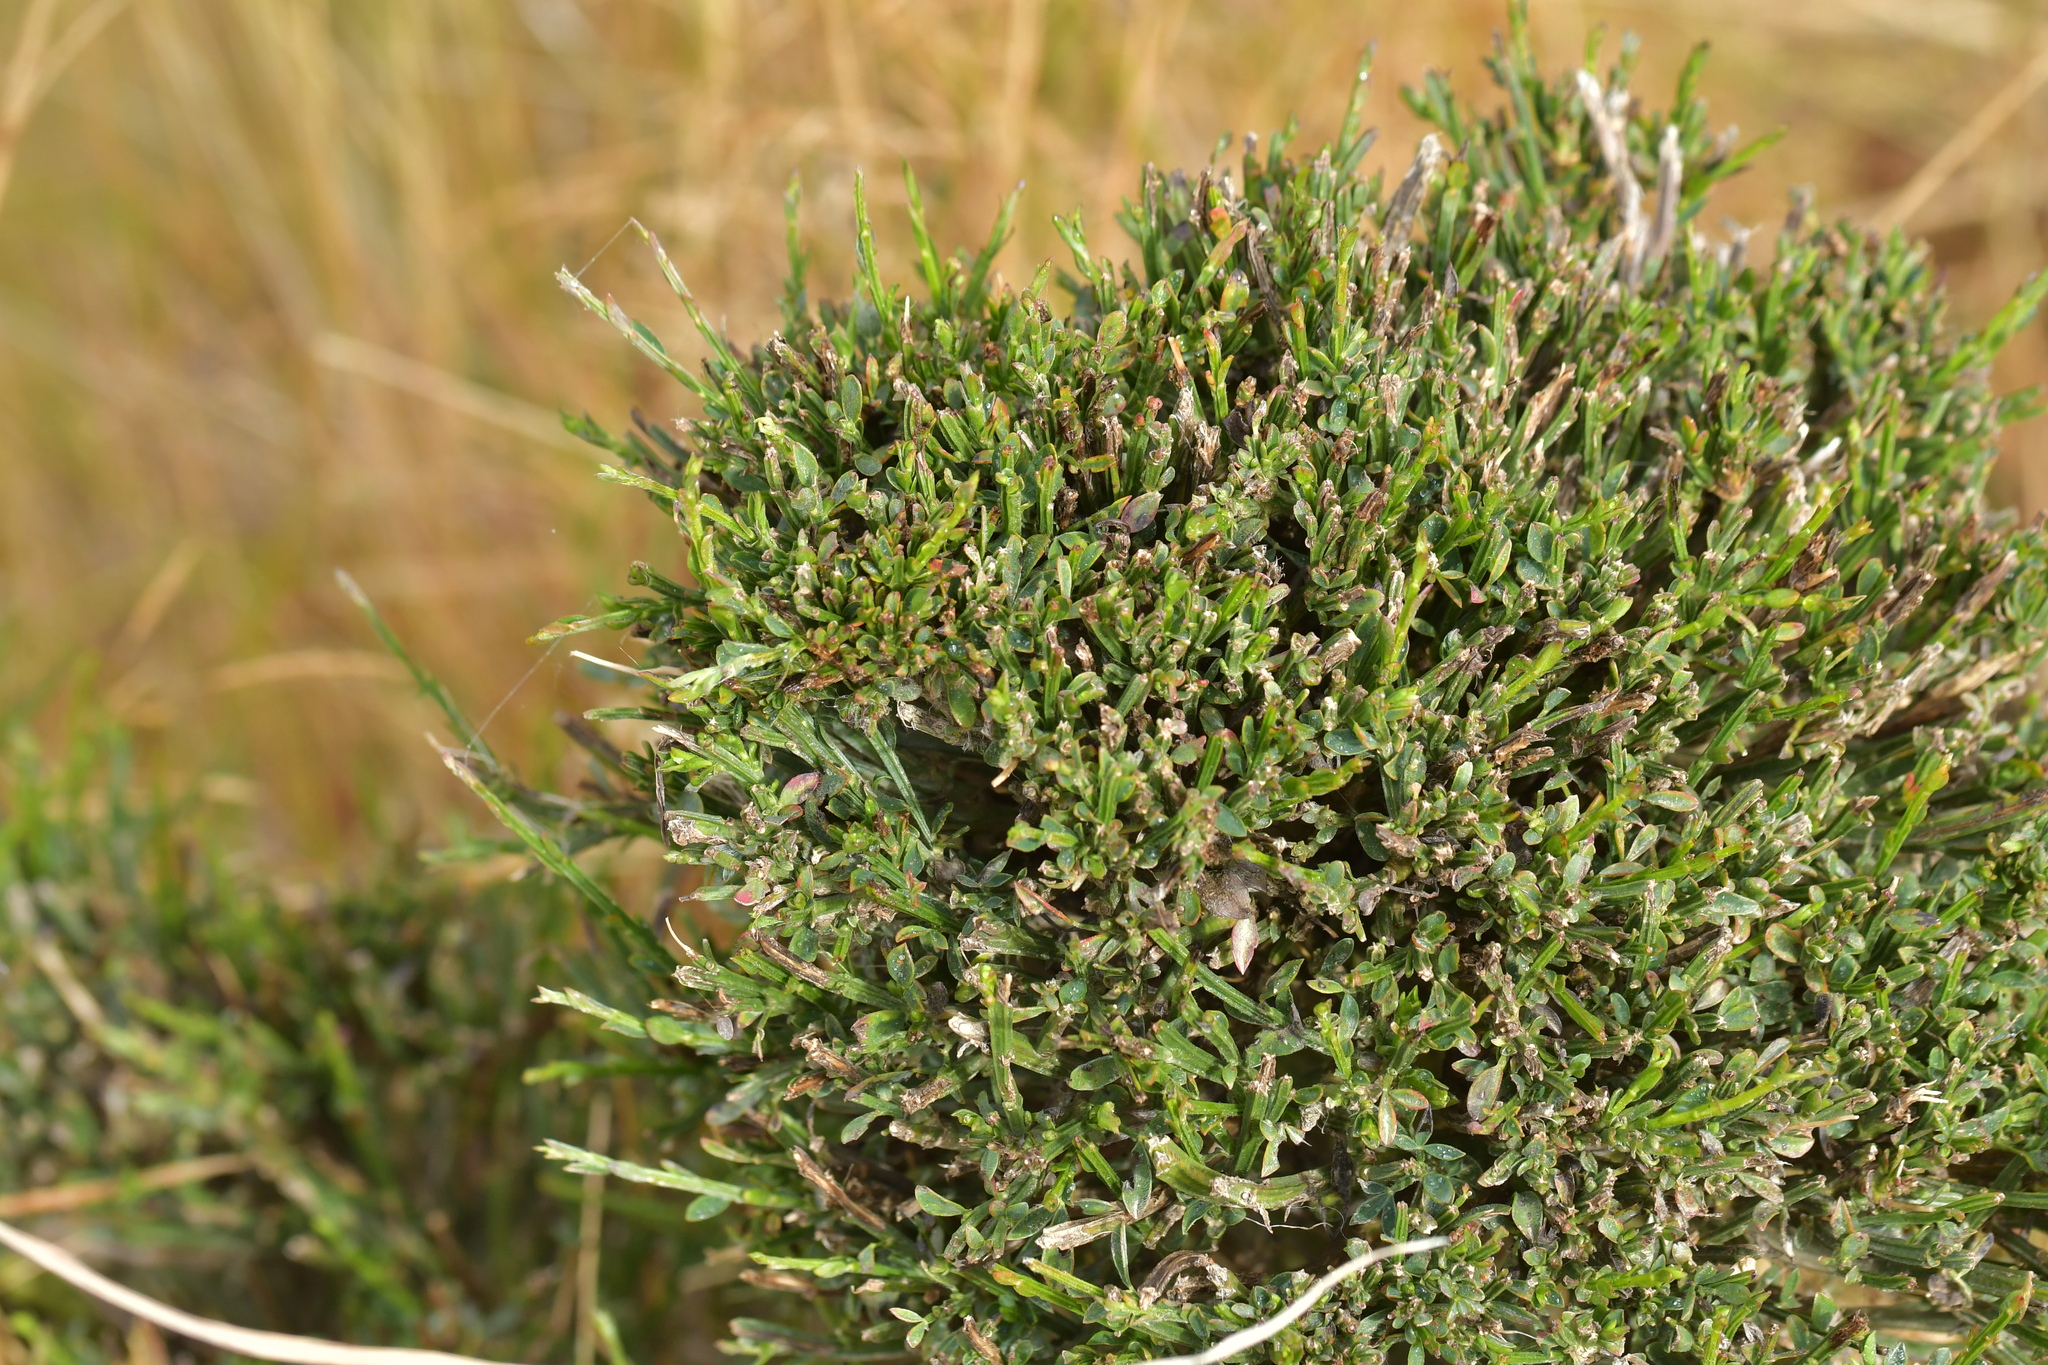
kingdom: Plantae
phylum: Tracheophyta
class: Magnoliopsida
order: Fabales
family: Fabaceae
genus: Cytisus
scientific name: Cytisus scoparius
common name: Scotch broom
